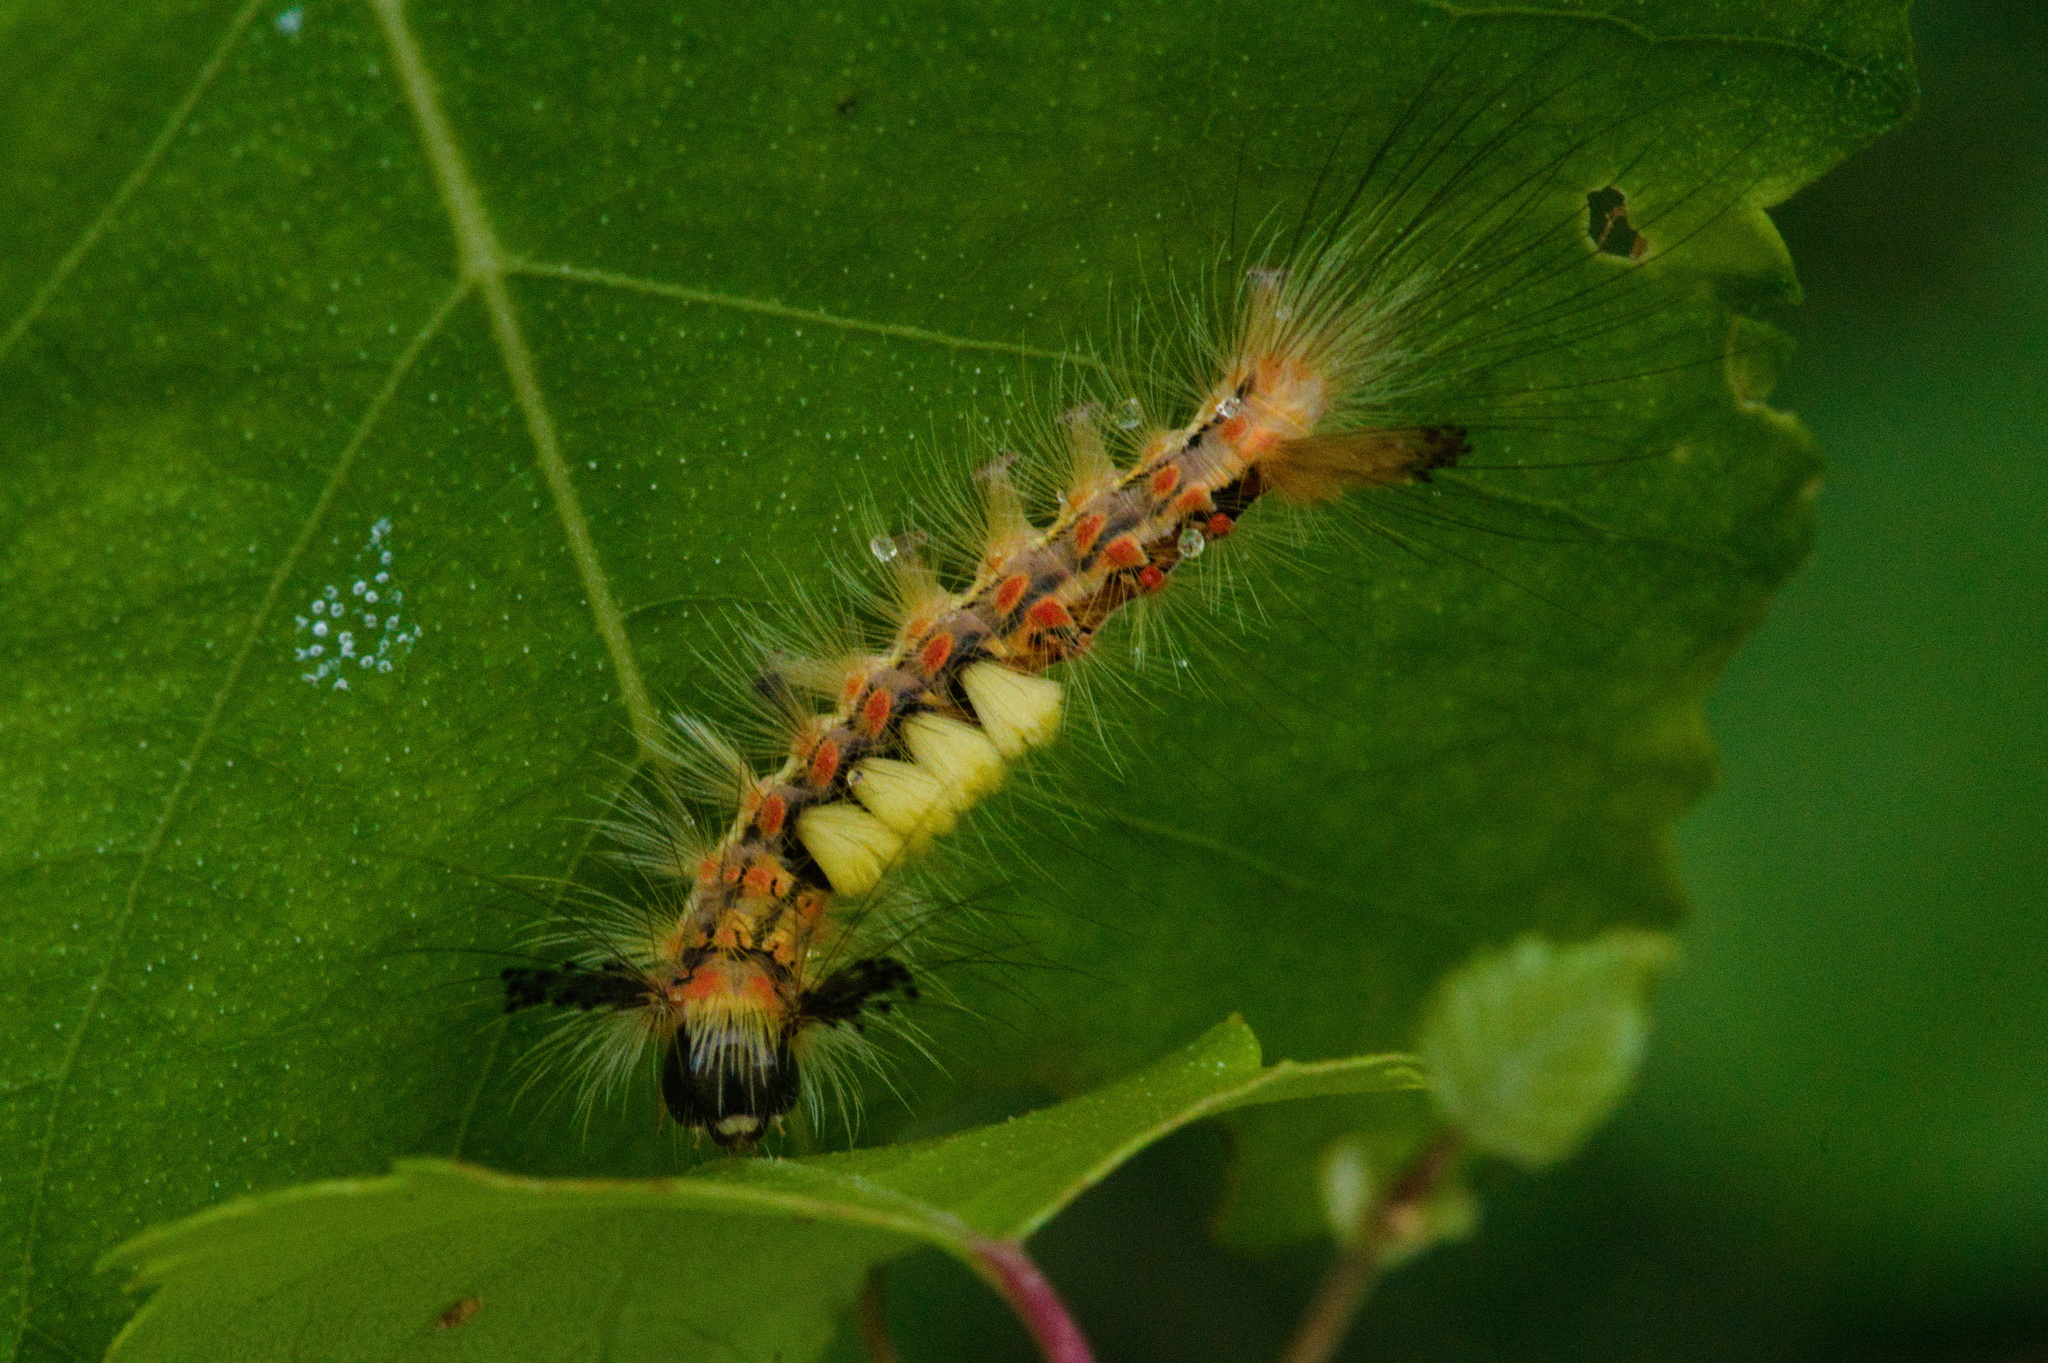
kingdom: Animalia
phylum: Arthropoda
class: Insecta
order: Lepidoptera
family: Erebidae
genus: Orgyia
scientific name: Orgyia antiqua
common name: Vapourer
